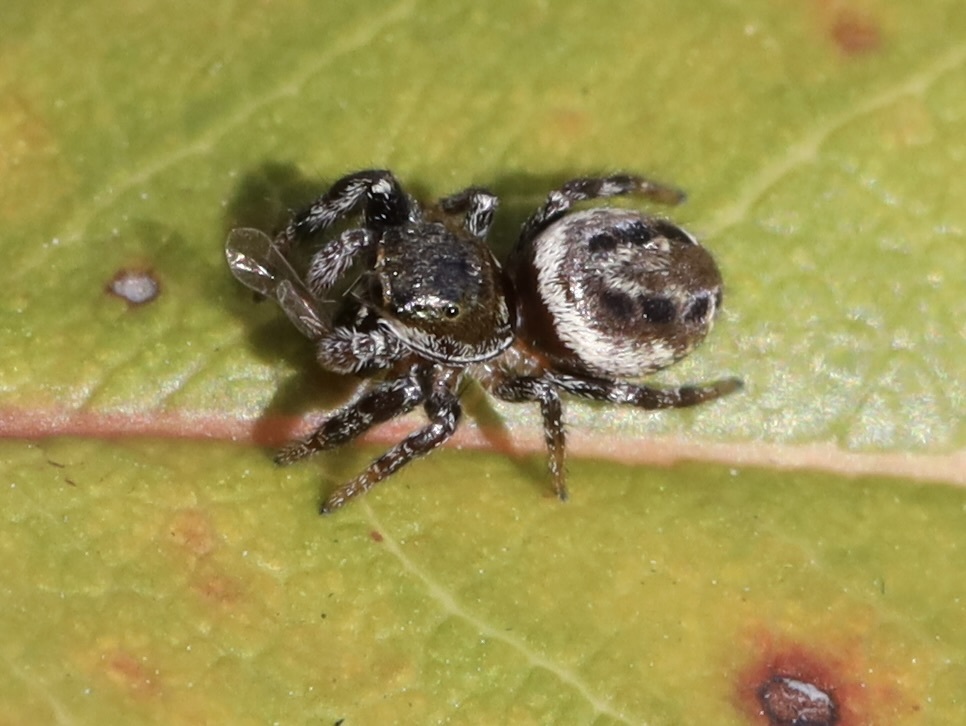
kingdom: Animalia
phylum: Arthropoda
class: Arachnida
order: Araneae
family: Salticidae
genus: Metaphidippus
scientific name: Metaphidippus manni
